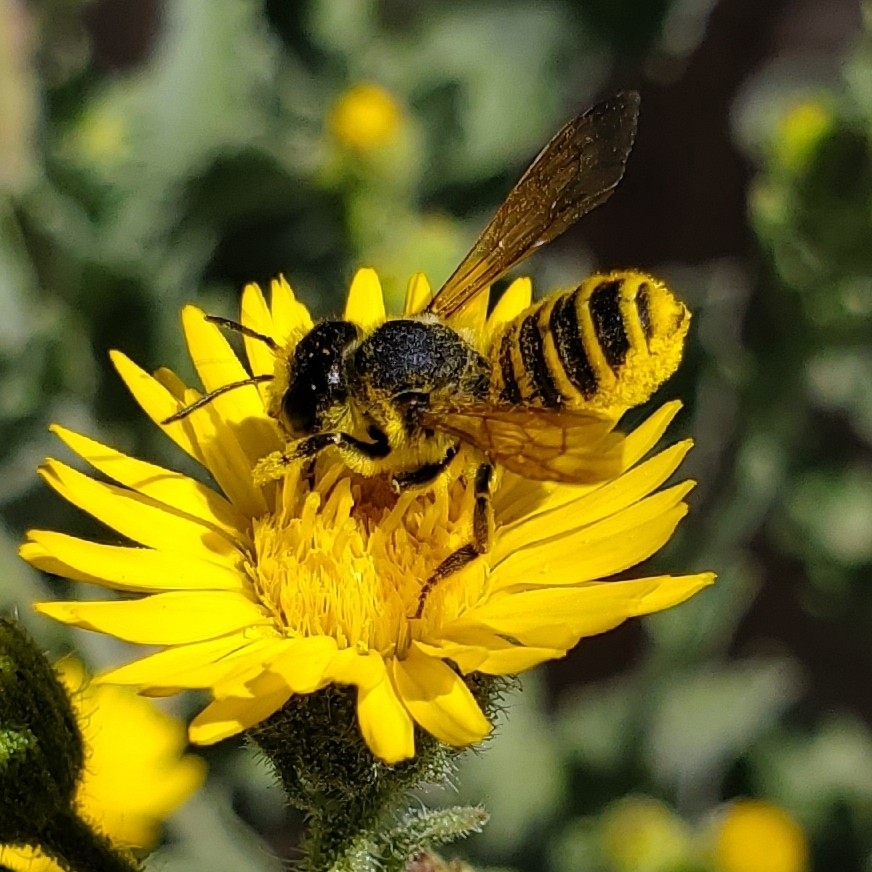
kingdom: Animalia
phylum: Arthropoda
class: Insecta
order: Hymenoptera
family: Megachilidae
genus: Megachile
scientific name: Megachile fidelis
